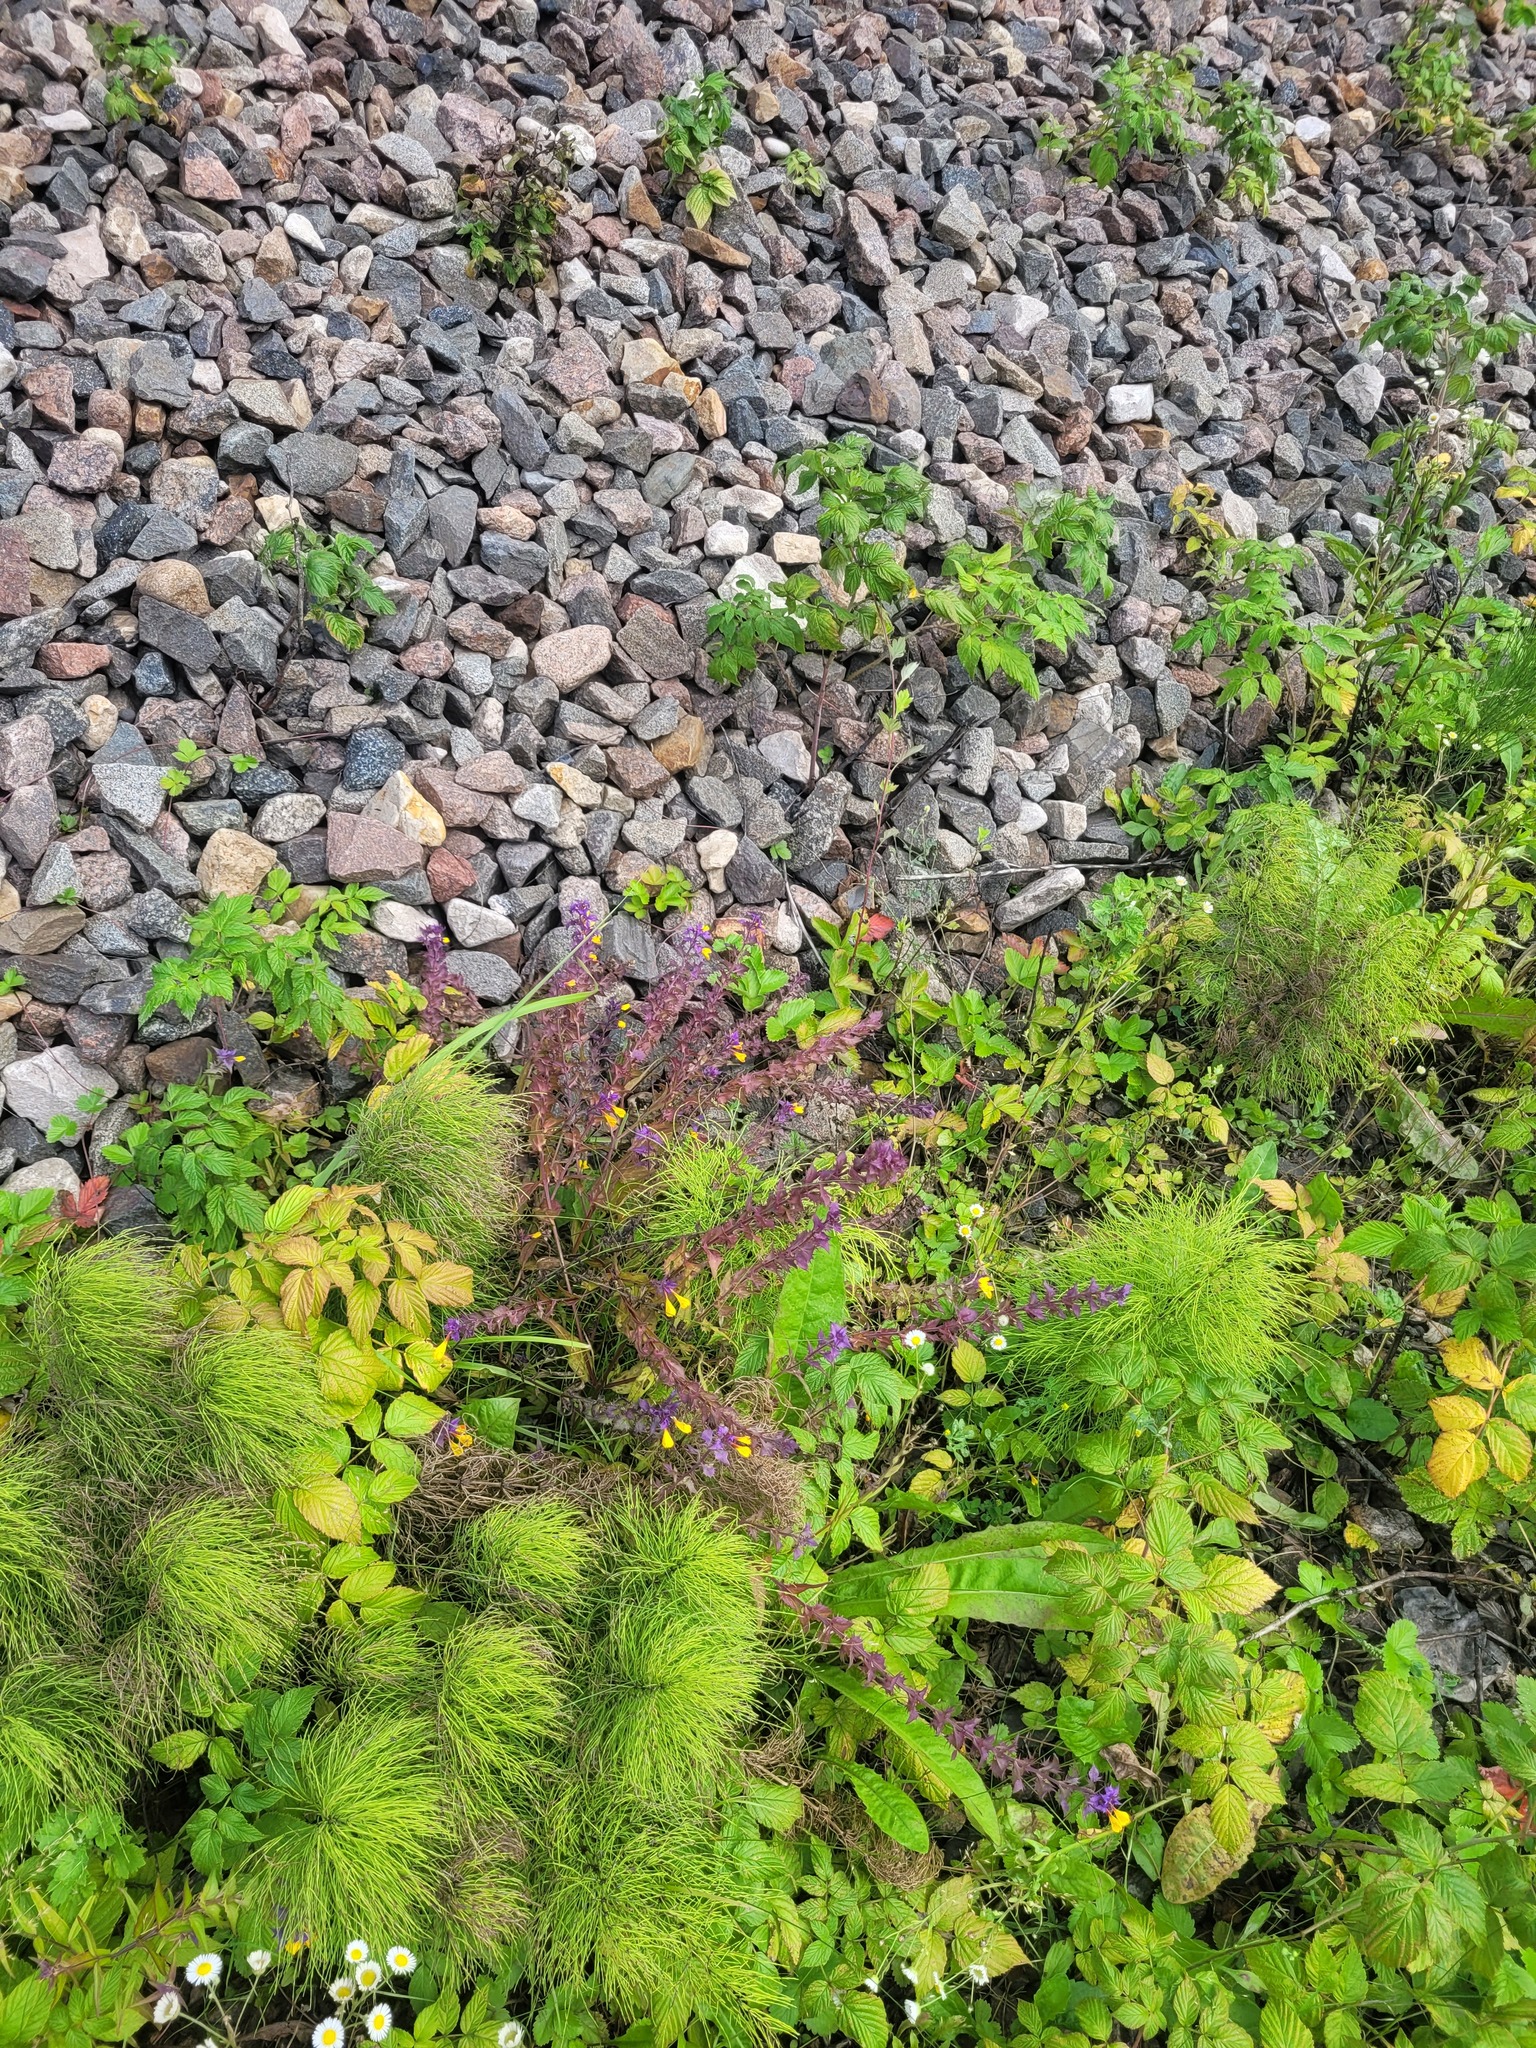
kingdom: Plantae
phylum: Tracheophyta
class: Magnoliopsida
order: Lamiales
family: Orobanchaceae
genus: Melampyrum
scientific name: Melampyrum nemorosum
